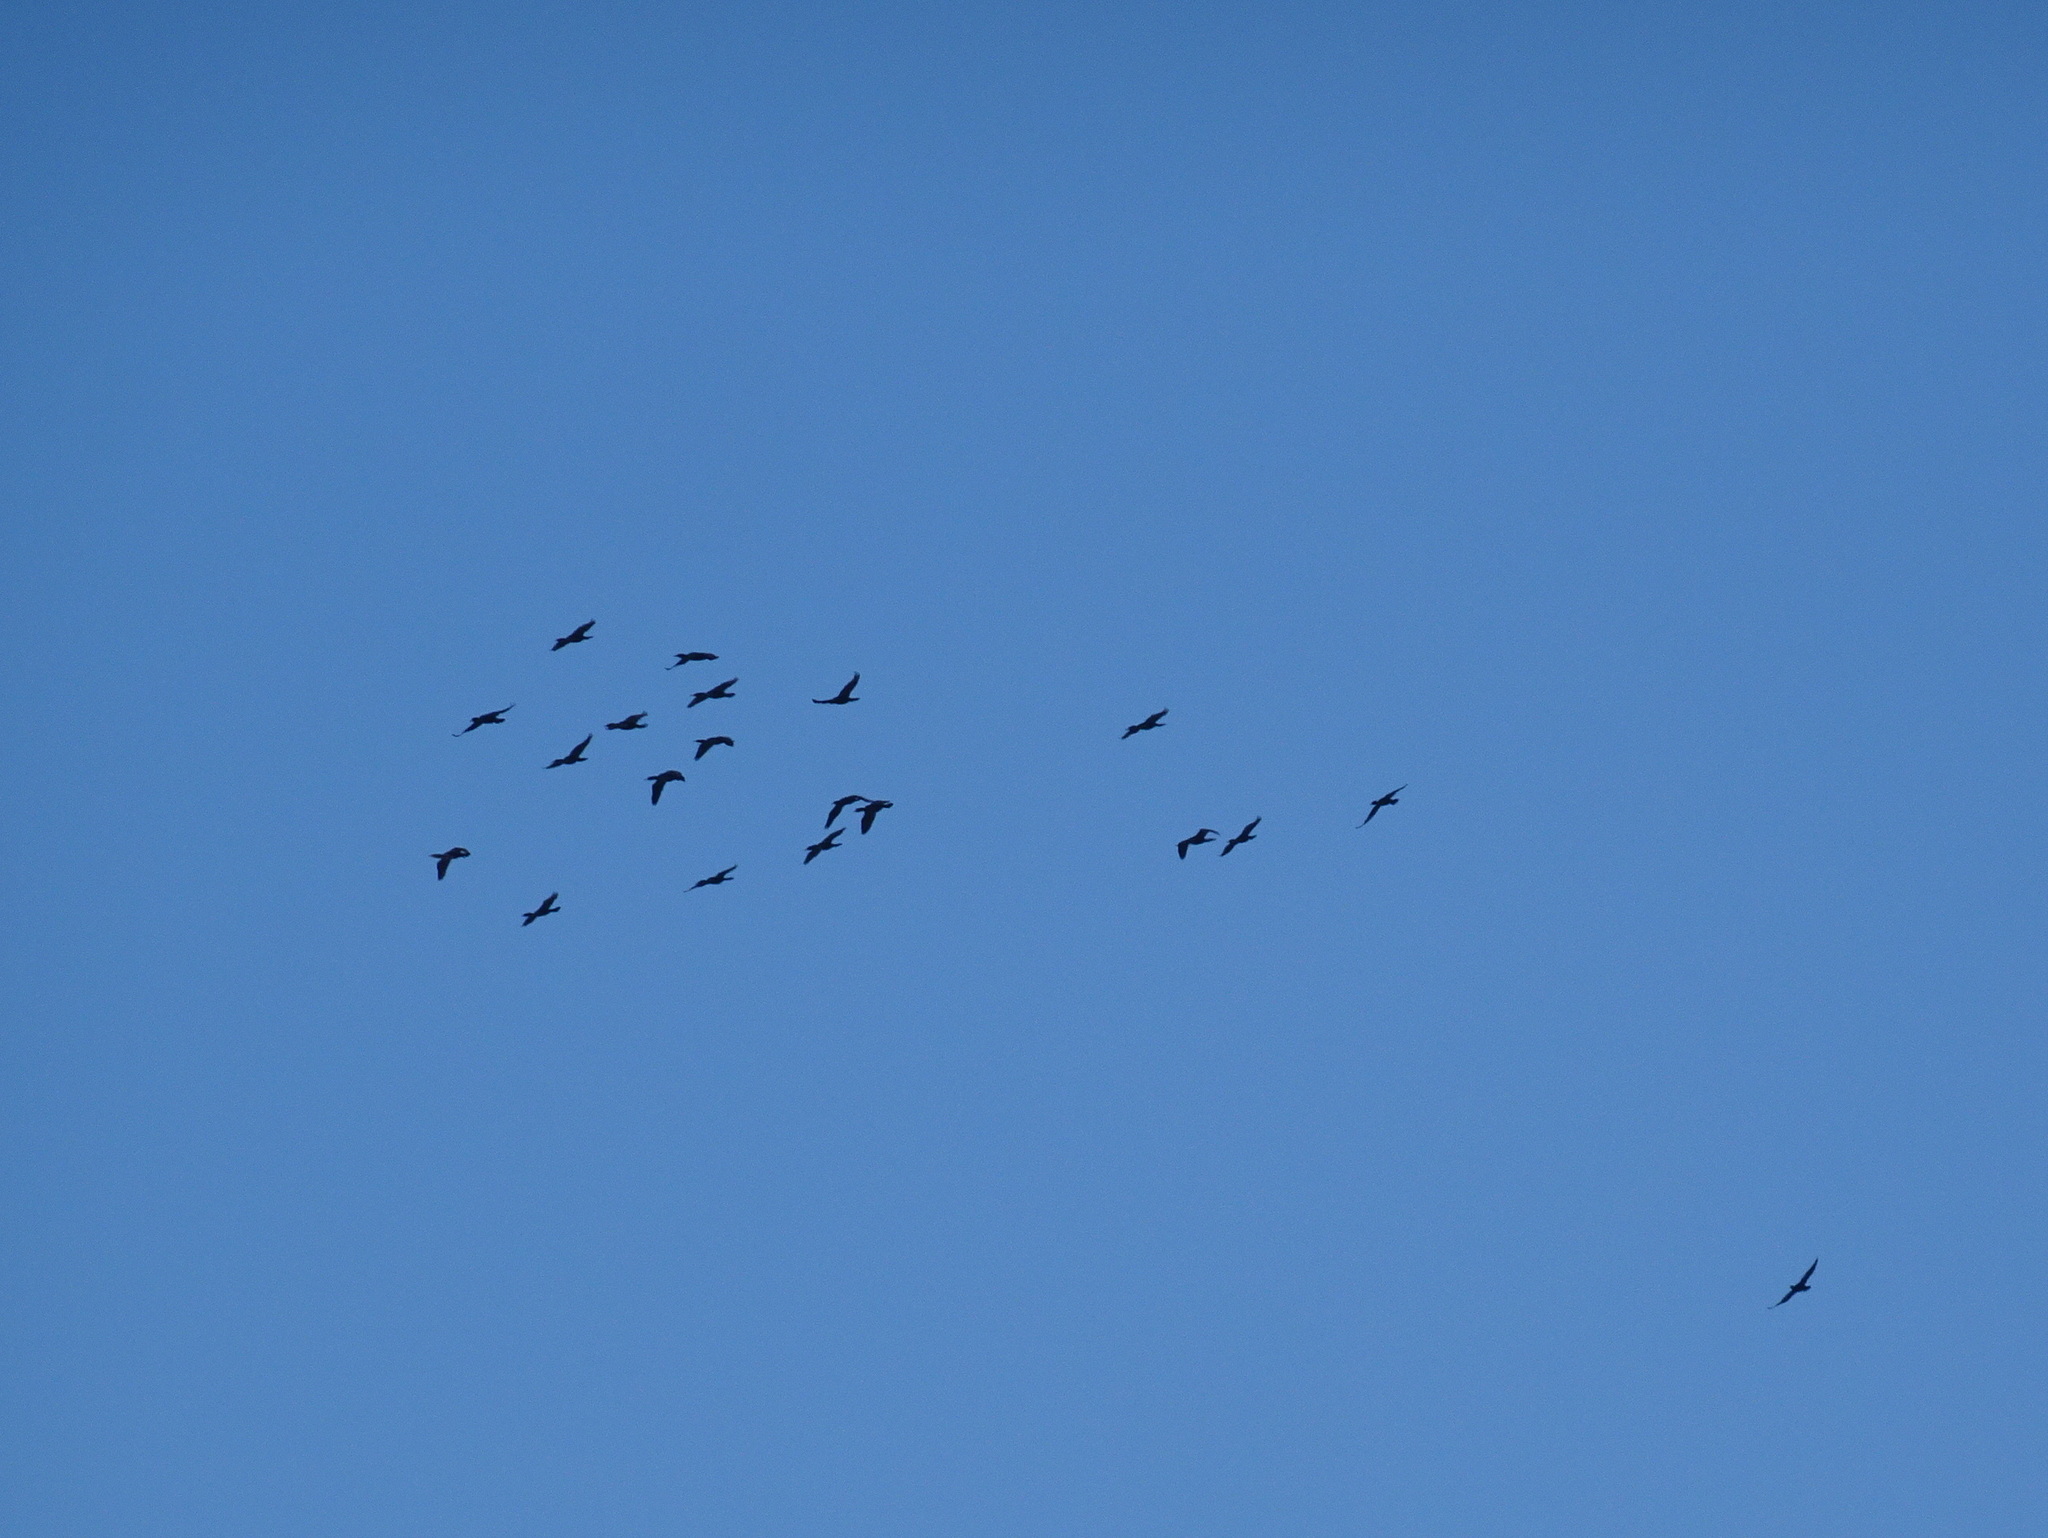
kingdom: Animalia
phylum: Chordata
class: Aves
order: Suliformes
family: Phalacrocoracidae
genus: Phalacrocorax
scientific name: Phalacrocorax auritus
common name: Double-crested cormorant
